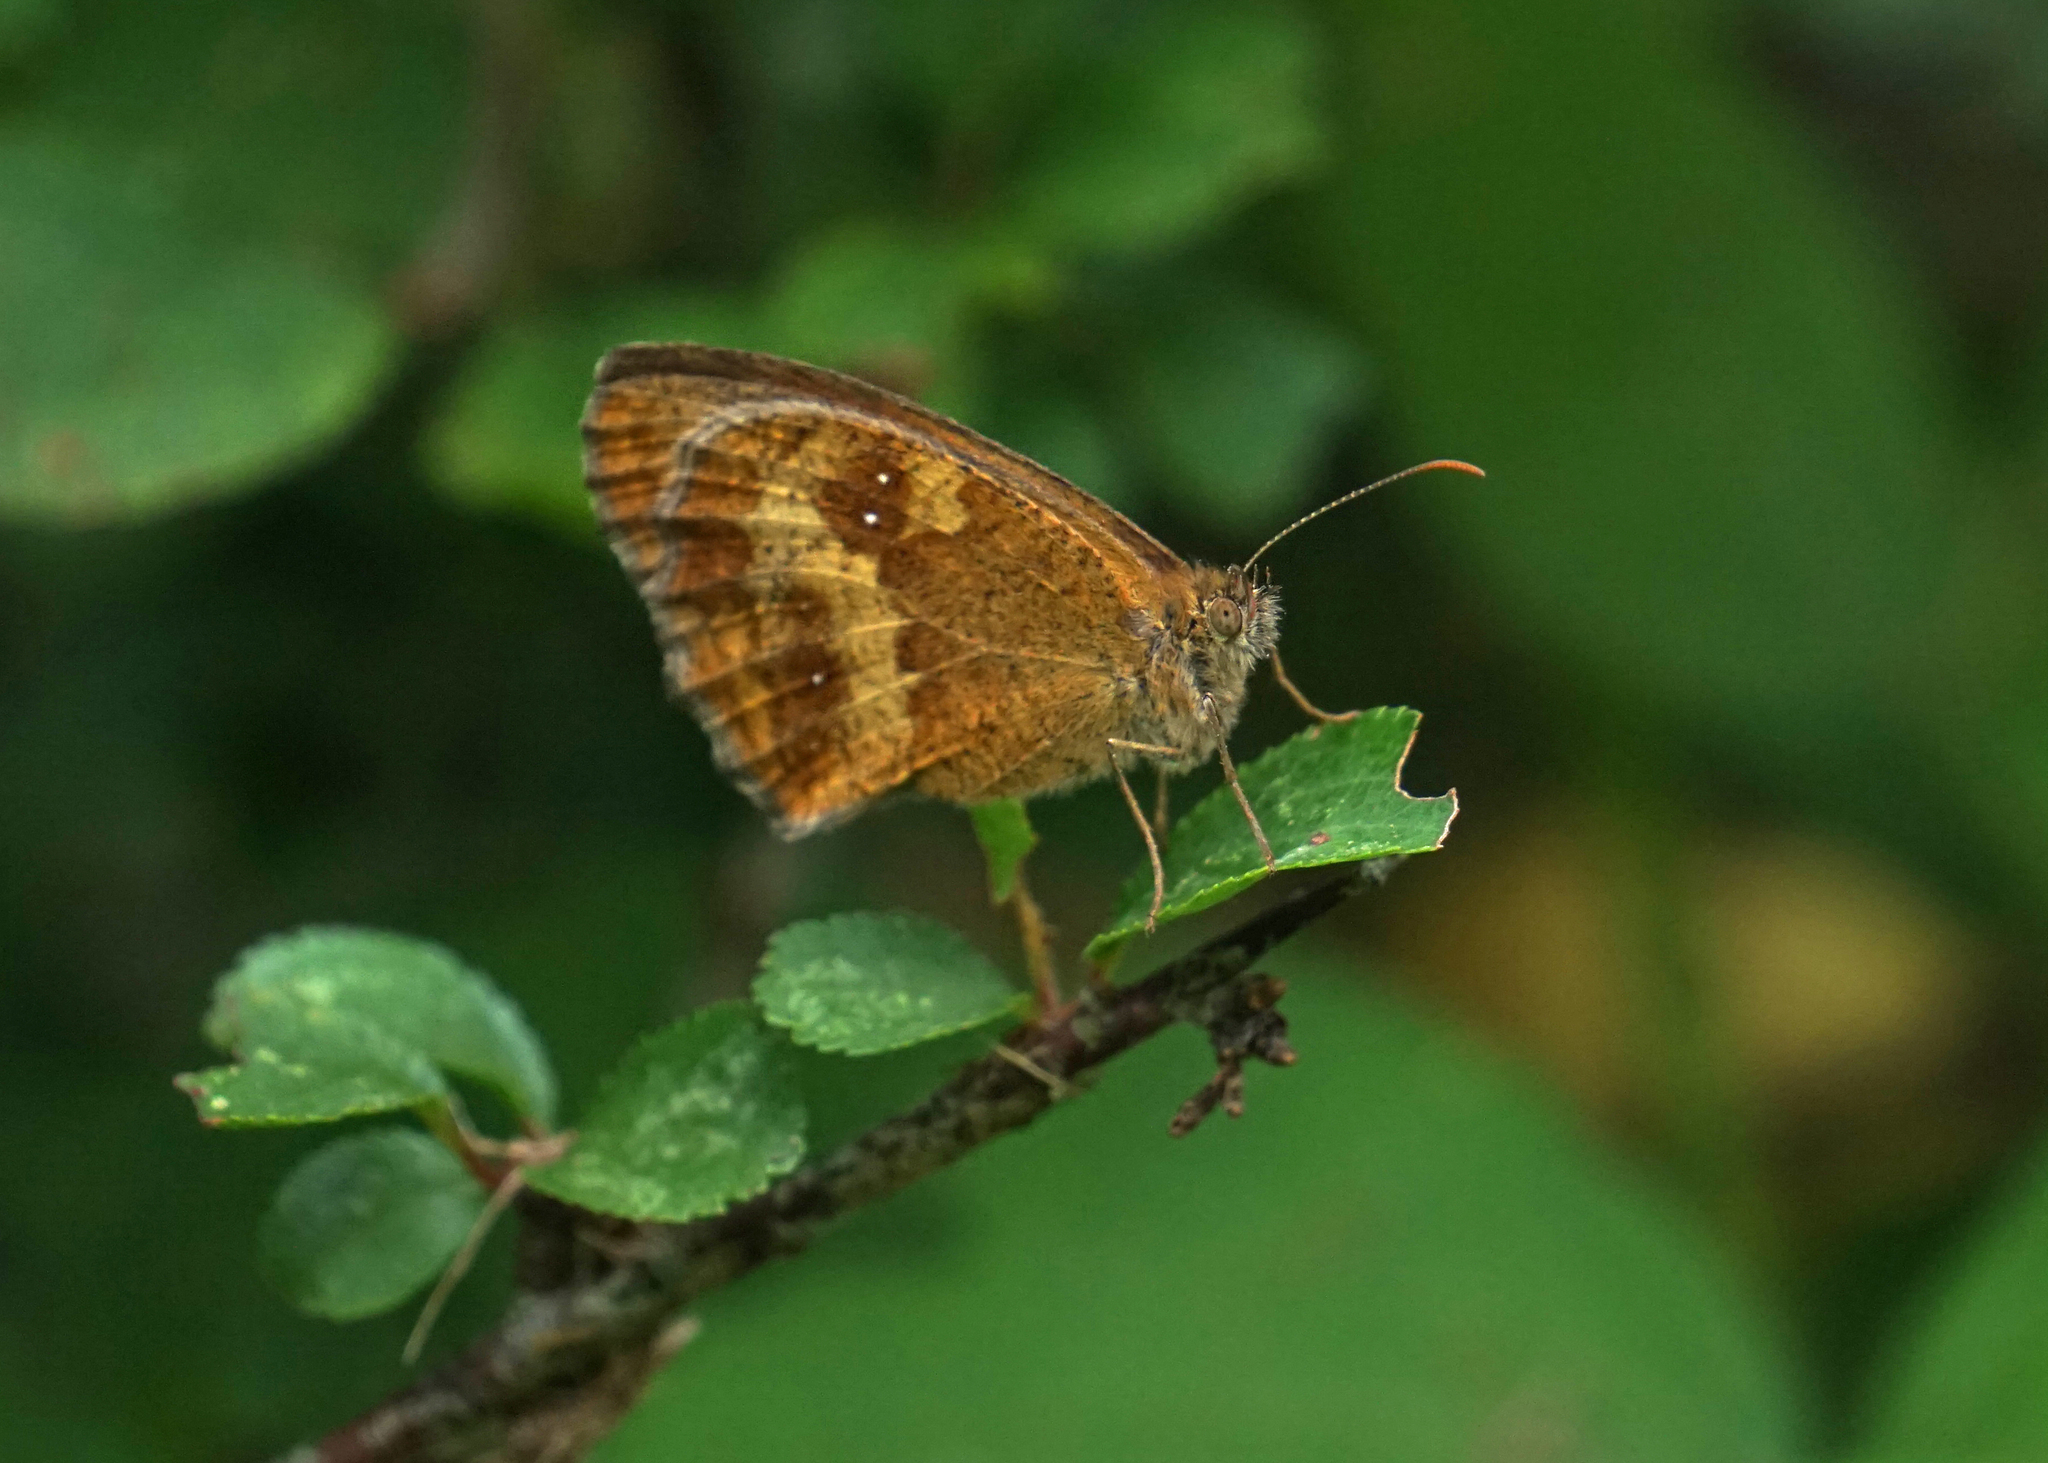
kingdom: Animalia
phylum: Arthropoda
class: Insecta
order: Lepidoptera
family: Nymphalidae
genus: Pyronia
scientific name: Pyronia tithonus
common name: Gatekeeper
